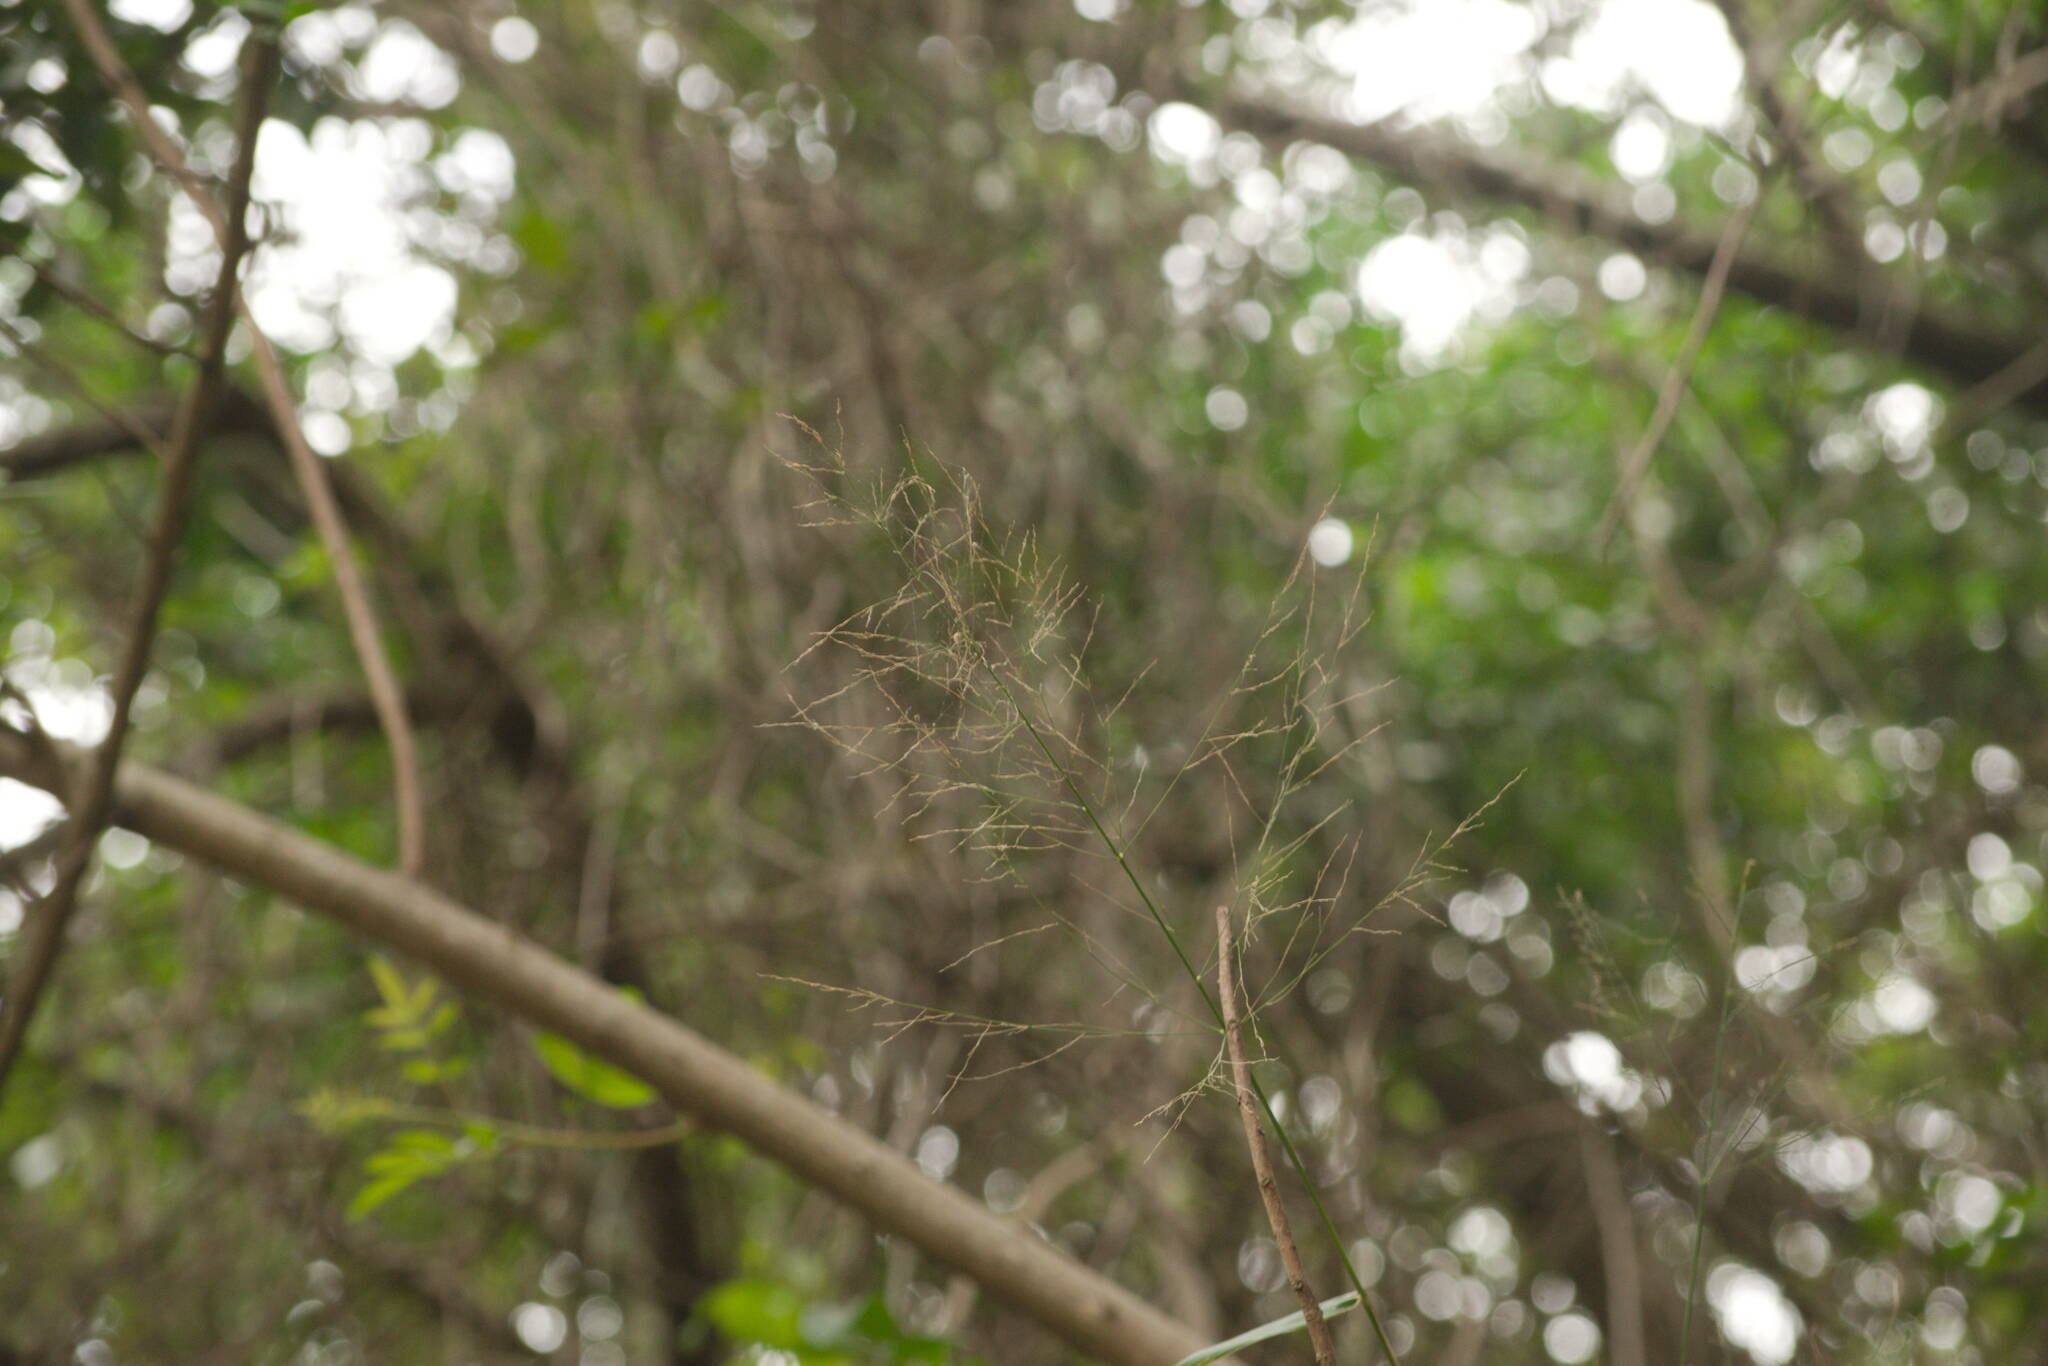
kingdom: Plantae
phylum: Tracheophyta
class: Liliopsida
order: Poales
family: Poaceae
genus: Megathyrsus
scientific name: Megathyrsus maximus
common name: Guineagrass
